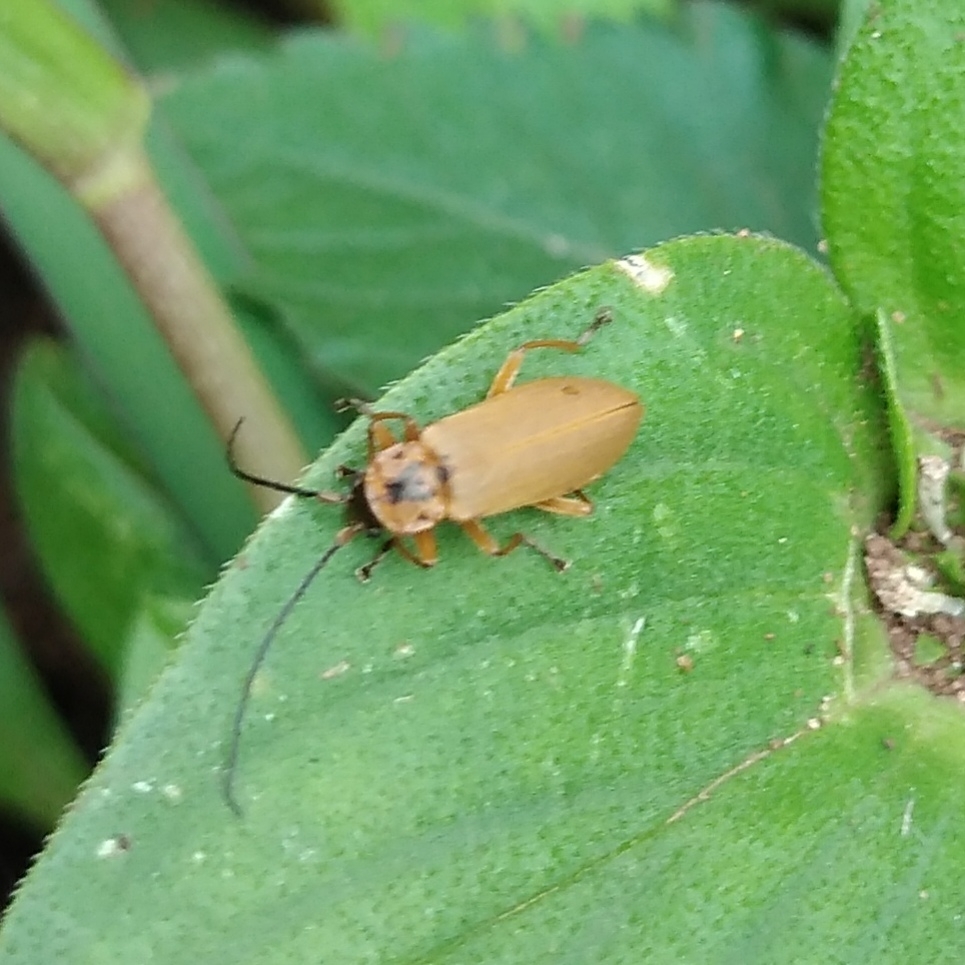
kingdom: Animalia
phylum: Arthropoda
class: Insecta
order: Coleoptera
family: Cantharidae
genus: Afronycha
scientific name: Afronycha
